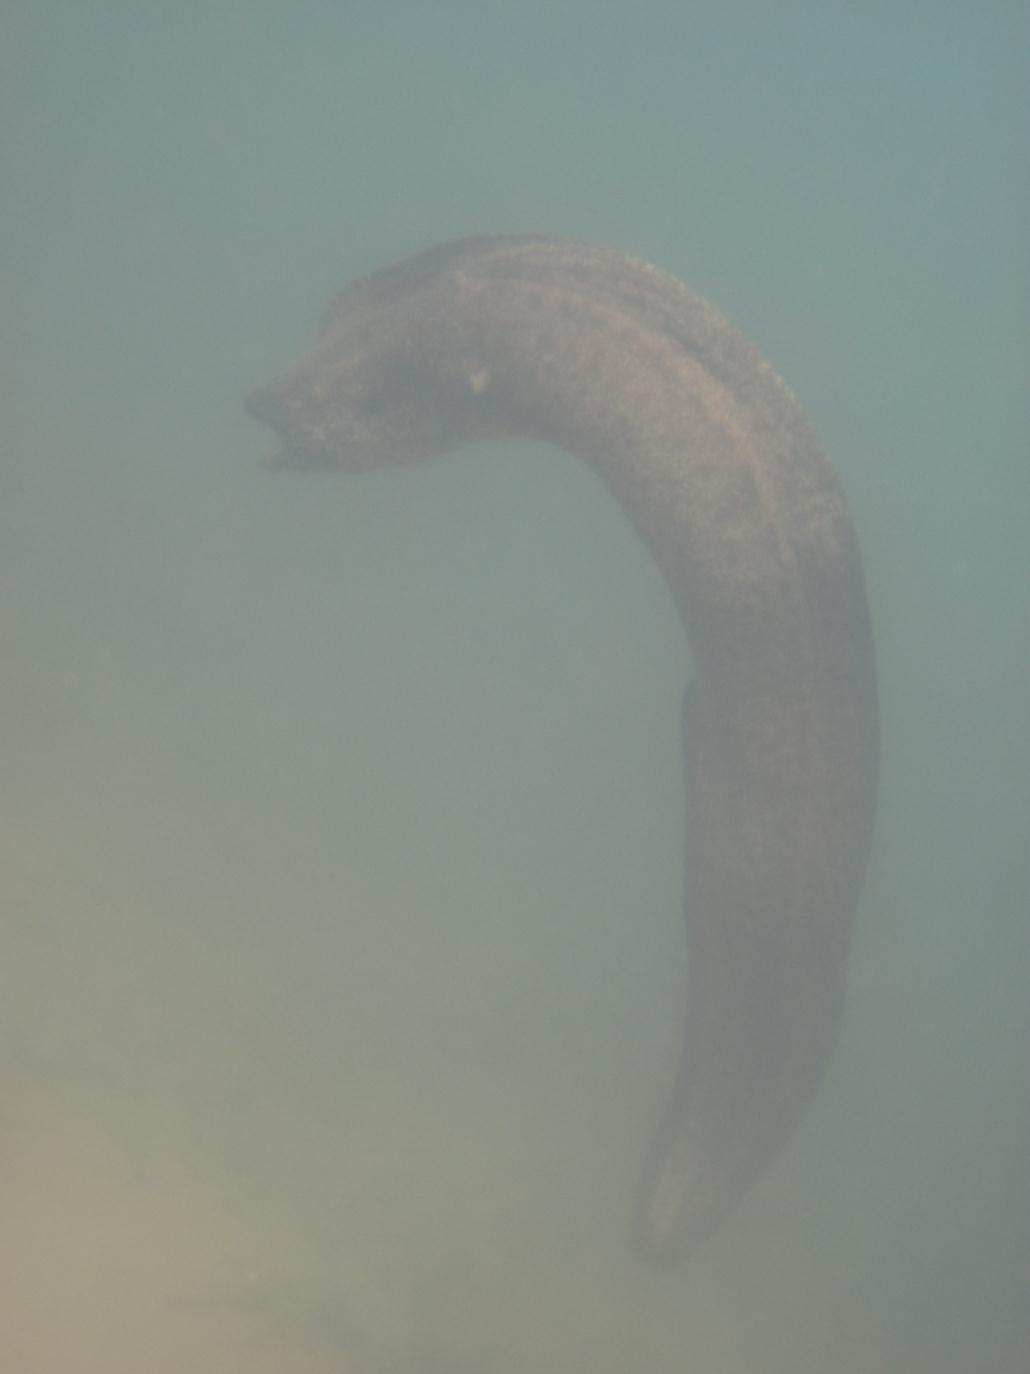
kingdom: Animalia
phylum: Chordata
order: Anguilliformes
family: Muraenidae
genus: Gymnothorax
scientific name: Gymnothorax javanicus
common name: Giant moray
